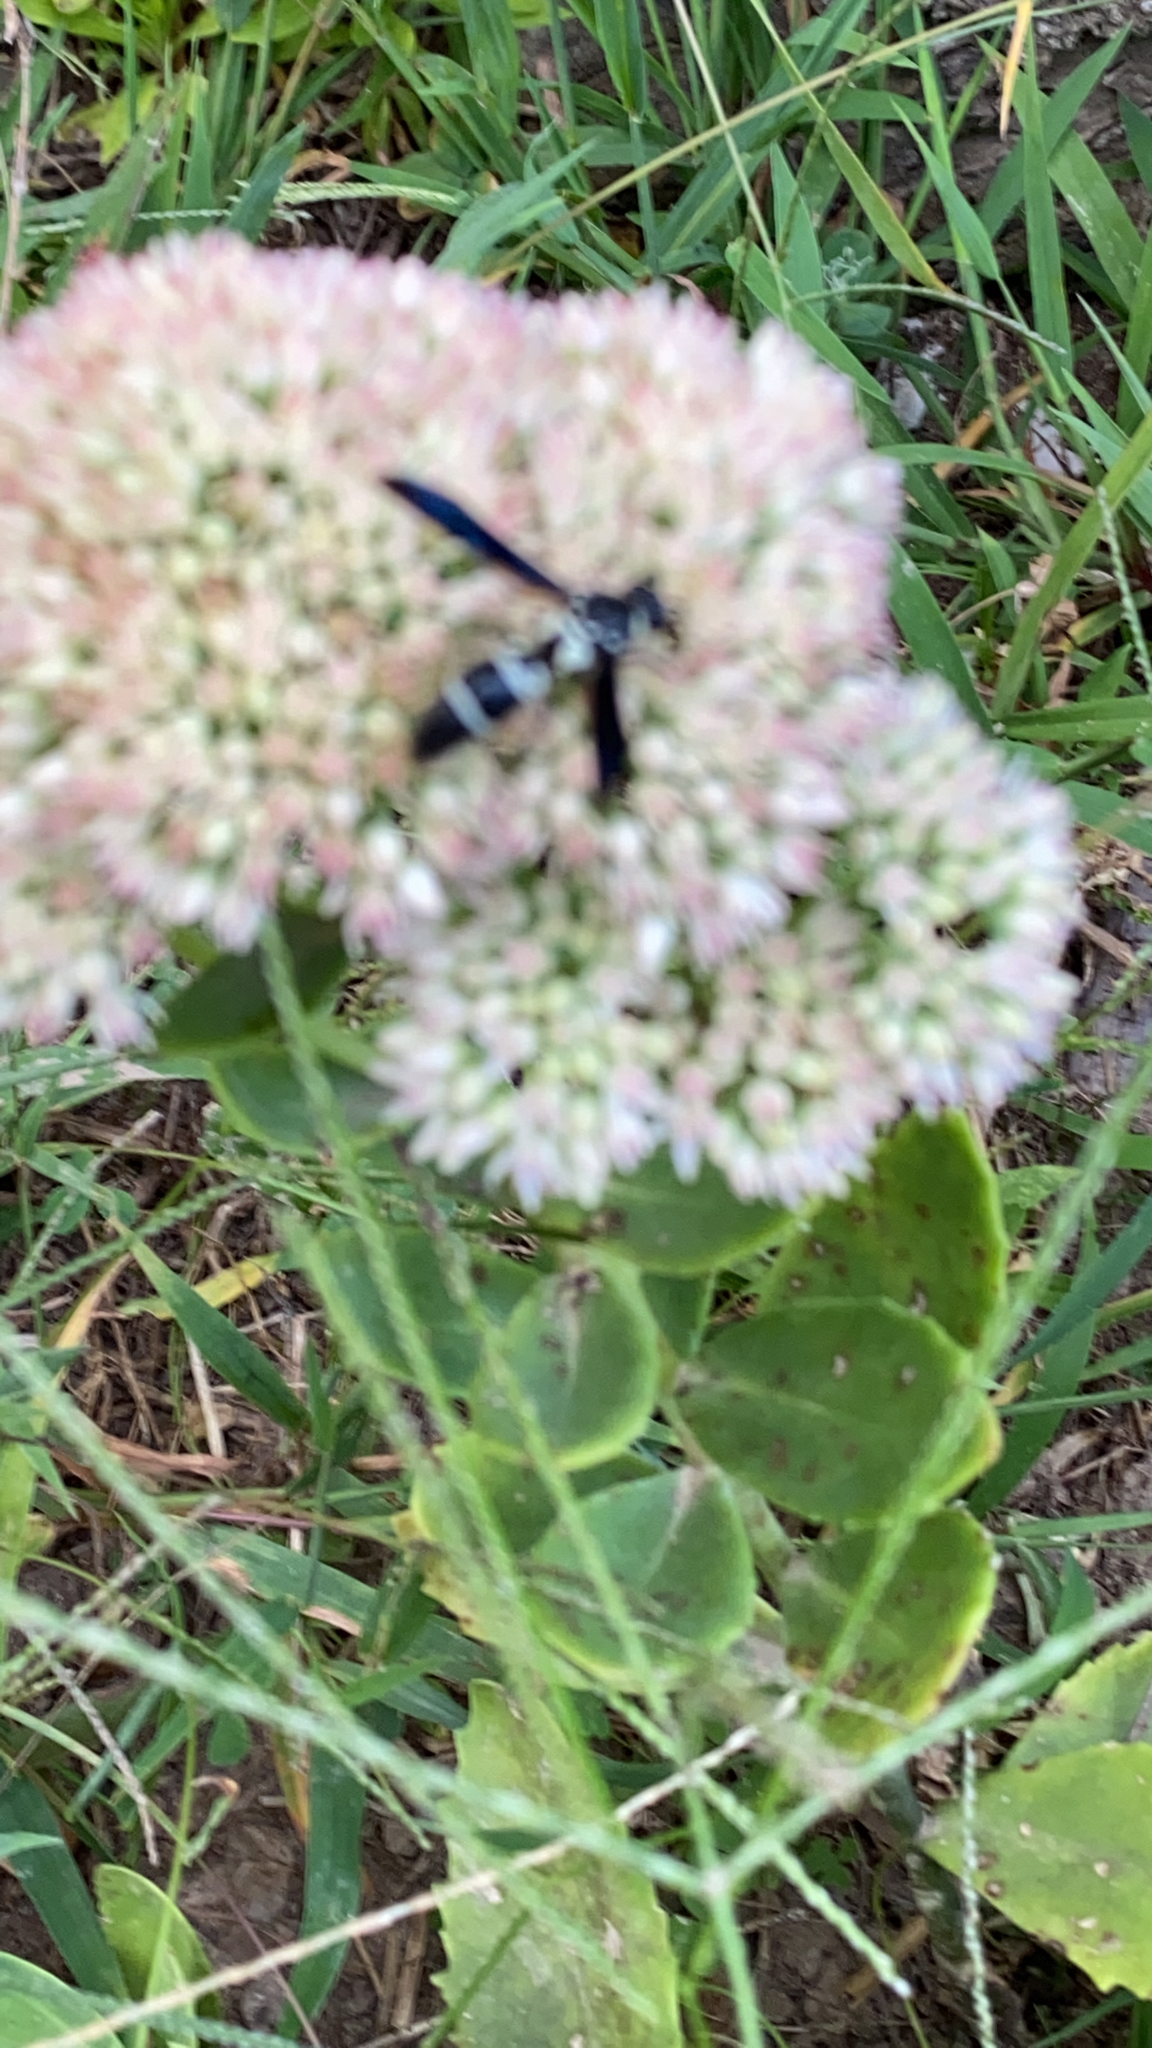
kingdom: Animalia
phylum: Arthropoda
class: Insecta
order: Hymenoptera
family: Eumenidae
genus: Pseudodynerus
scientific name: Pseudodynerus quadrisectus
